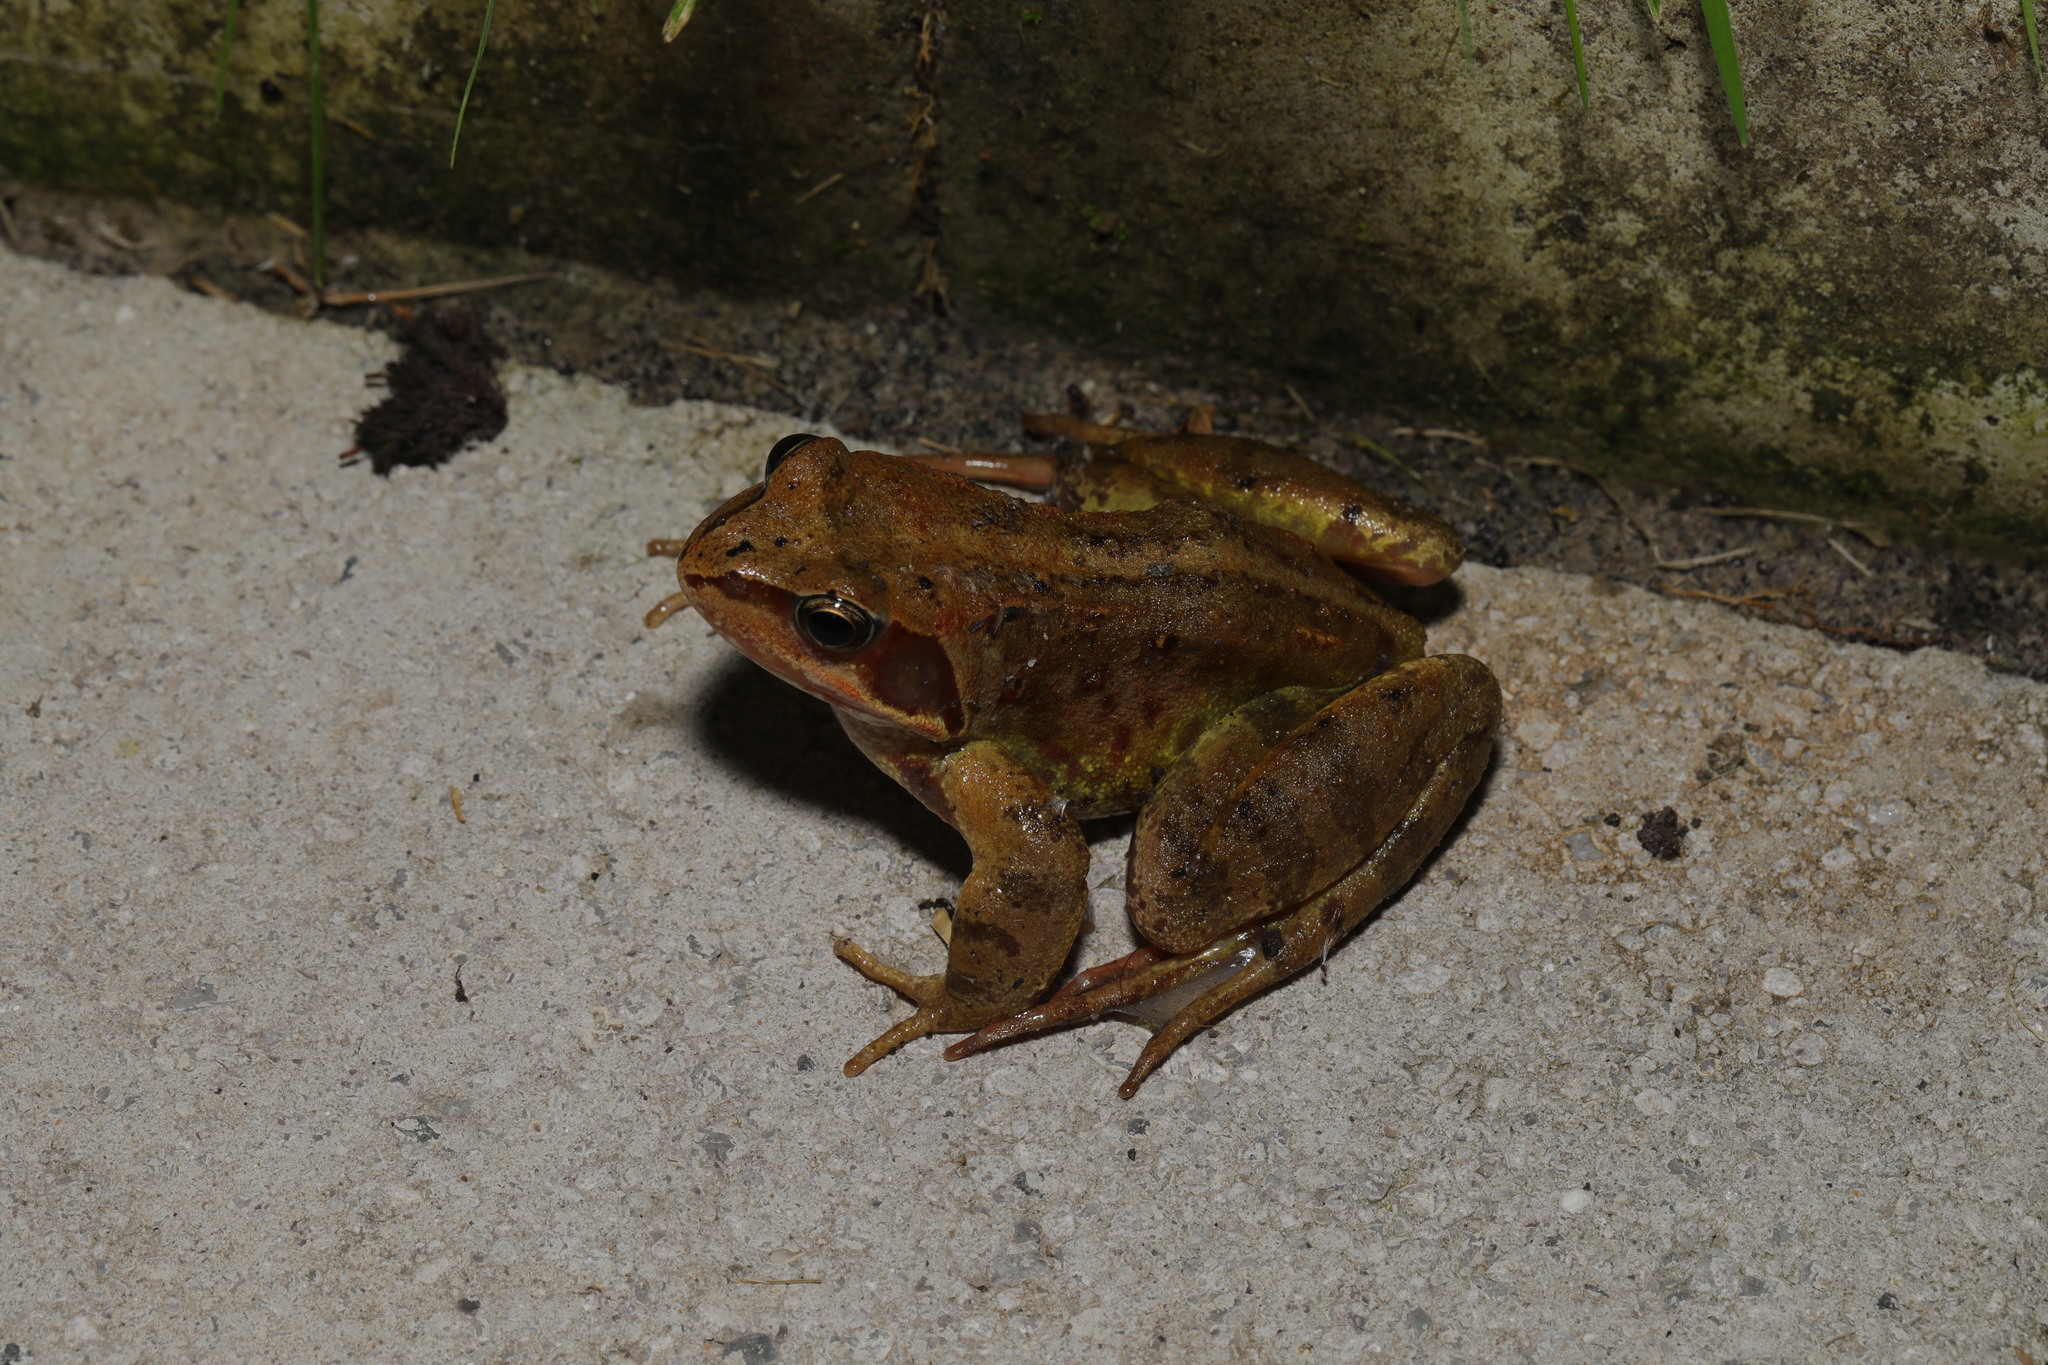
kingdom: Animalia
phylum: Chordata
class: Amphibia
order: Anura
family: Ranidae
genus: Rana
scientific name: Rana temporaria
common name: Common frog
